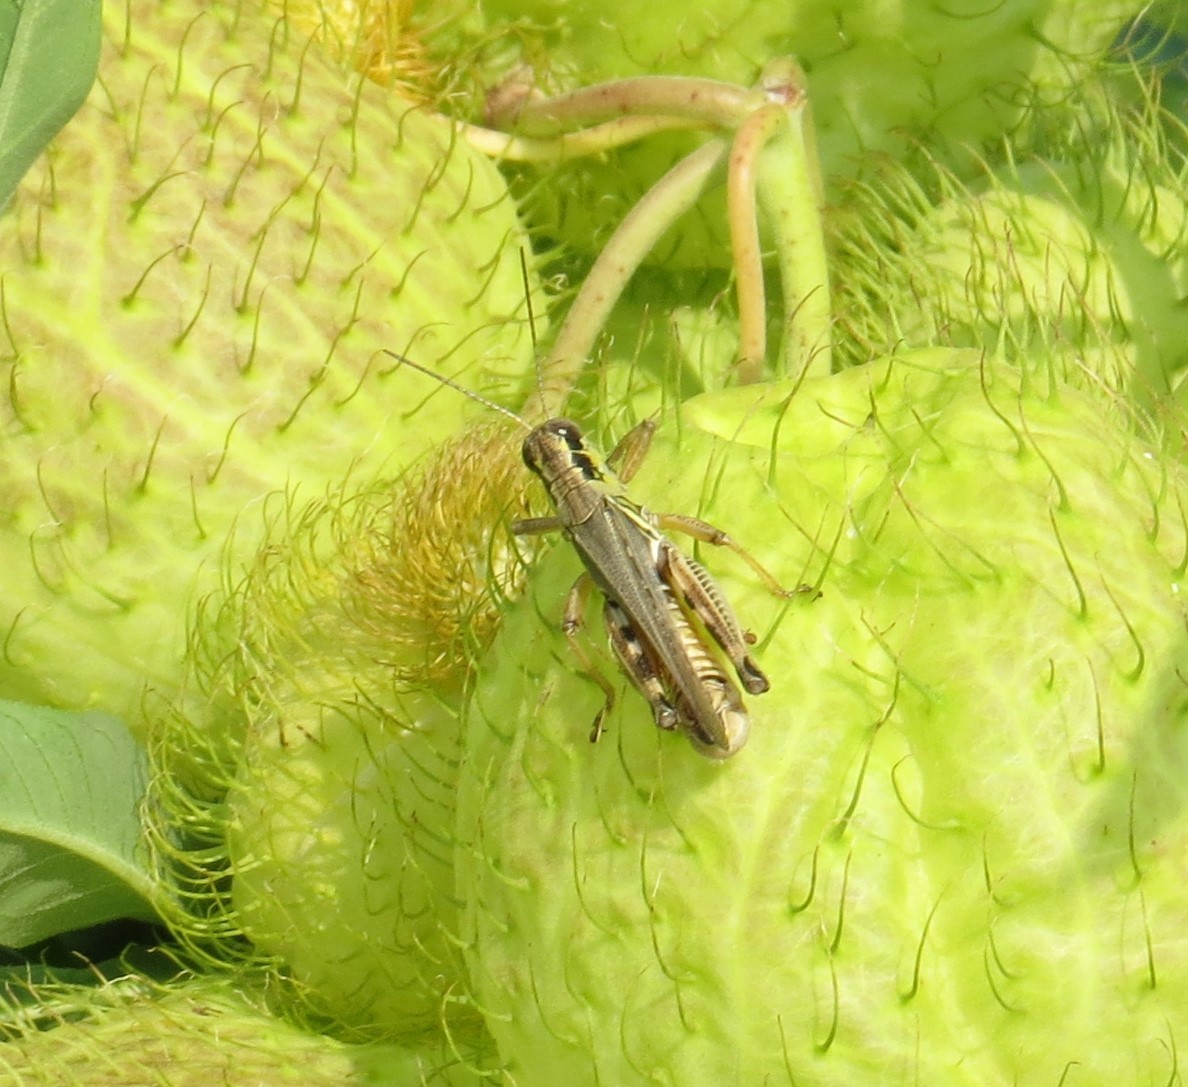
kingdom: Animalia
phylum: Arthropoda
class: Insecta
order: Orthoptera
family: Acrididae
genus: Melanoplus
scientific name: Melanoplus femurrubrum
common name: Red-legged grasshopper
